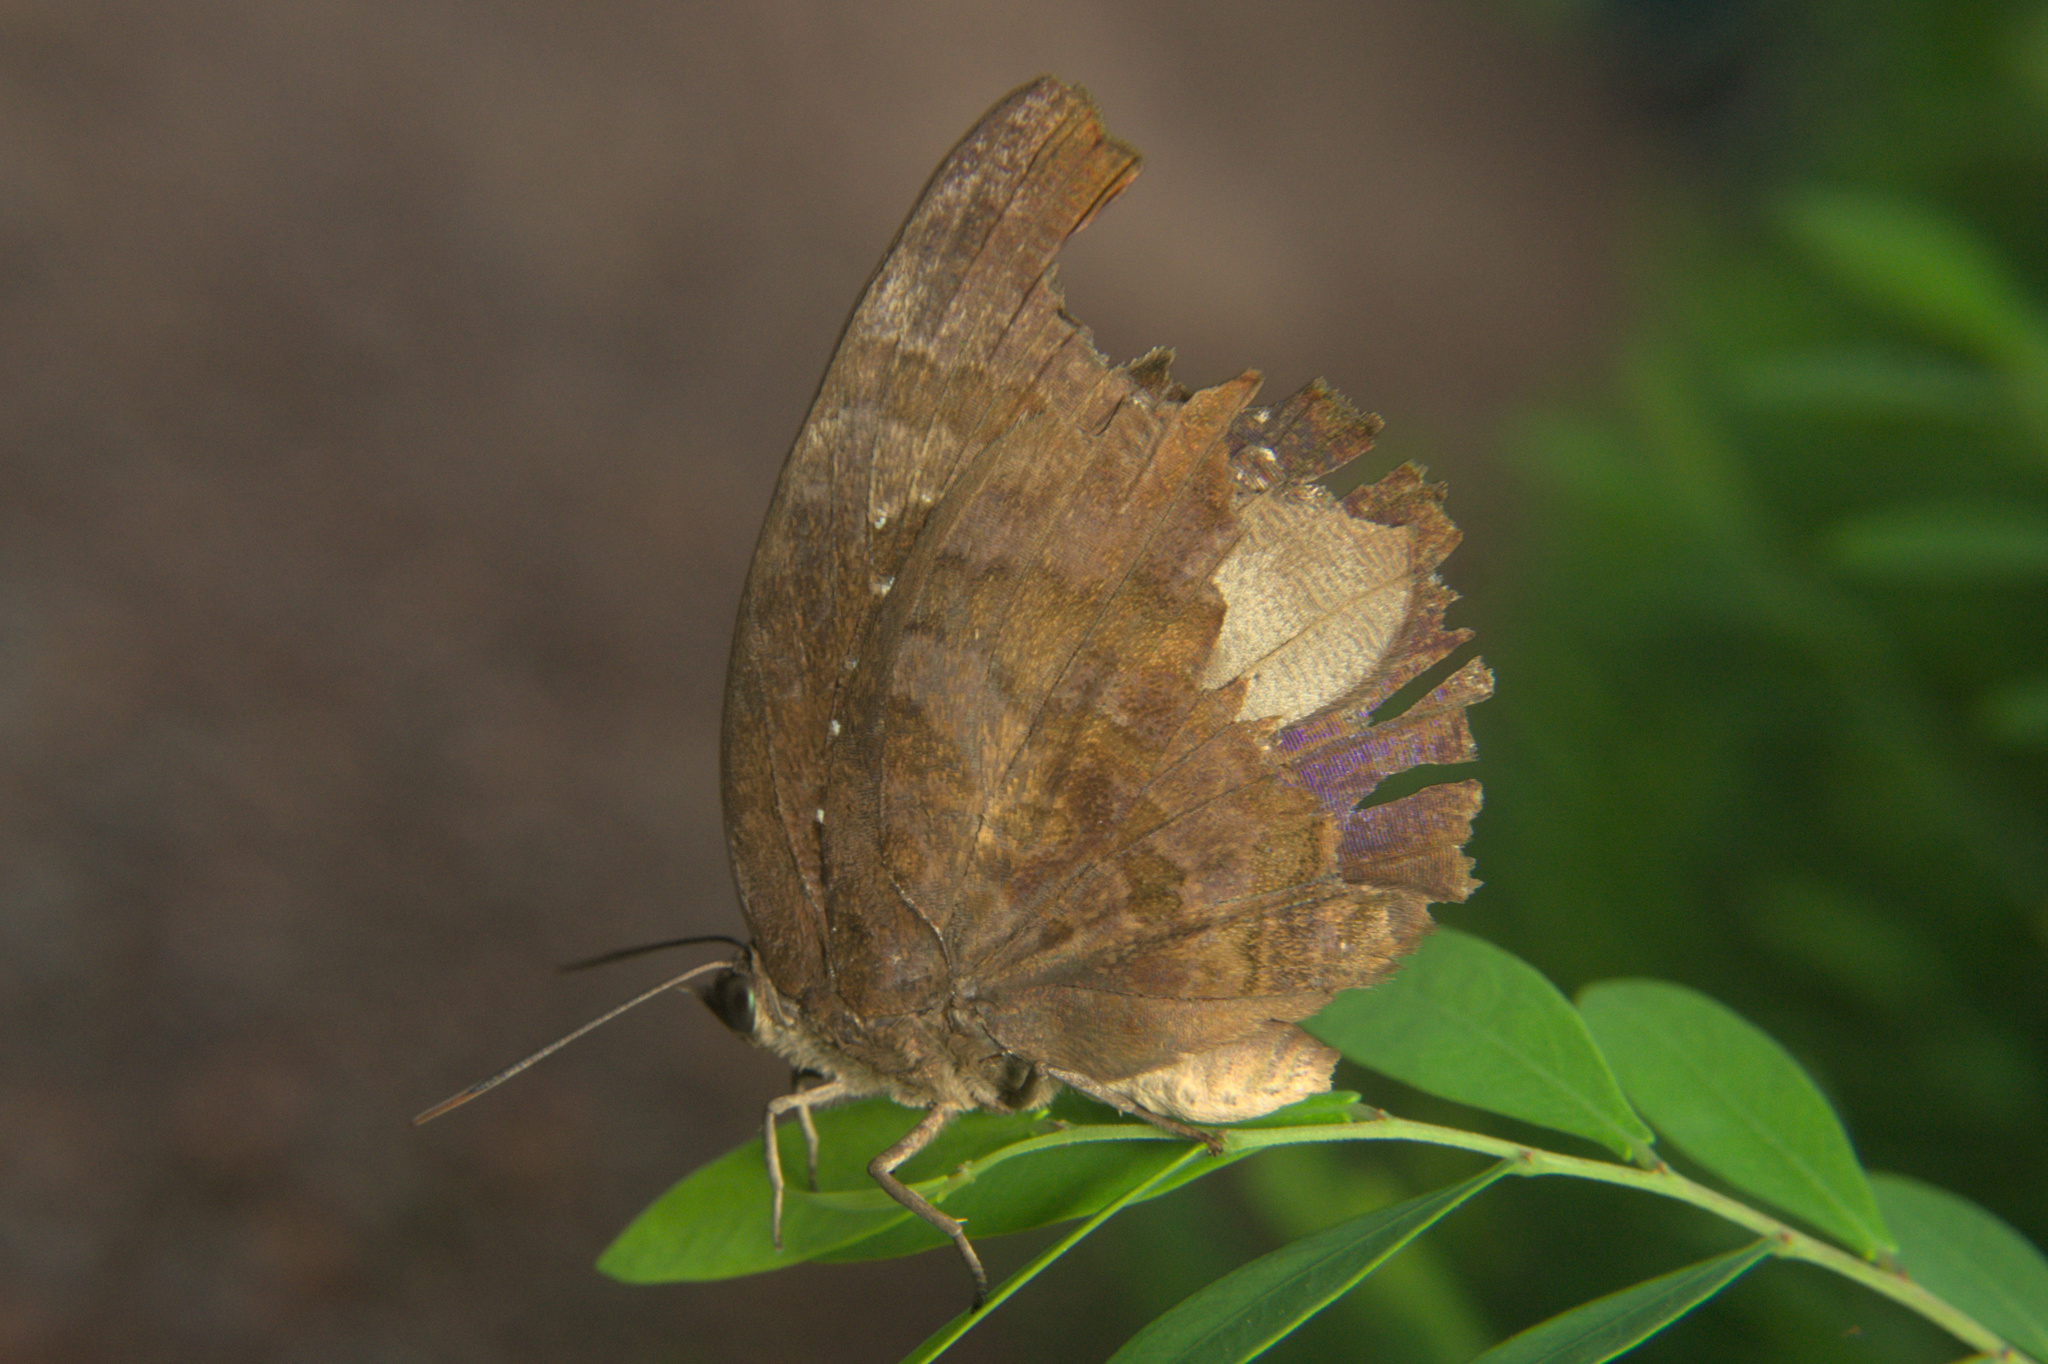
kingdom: Animalia
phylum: Arthropoda
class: Insecta
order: Lepidoptera
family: Lycaenidae
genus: Arhopala
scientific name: Arhopala centaurus
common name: Dull oak-blue
